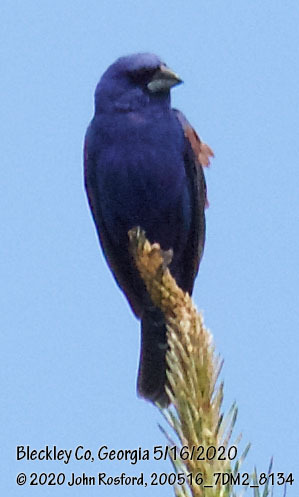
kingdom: Animalia
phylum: Chordata
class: Aves
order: Passeriformes
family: Cardinalidae
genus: Passerina
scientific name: Passerina caerulea
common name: Blue grosbeak
